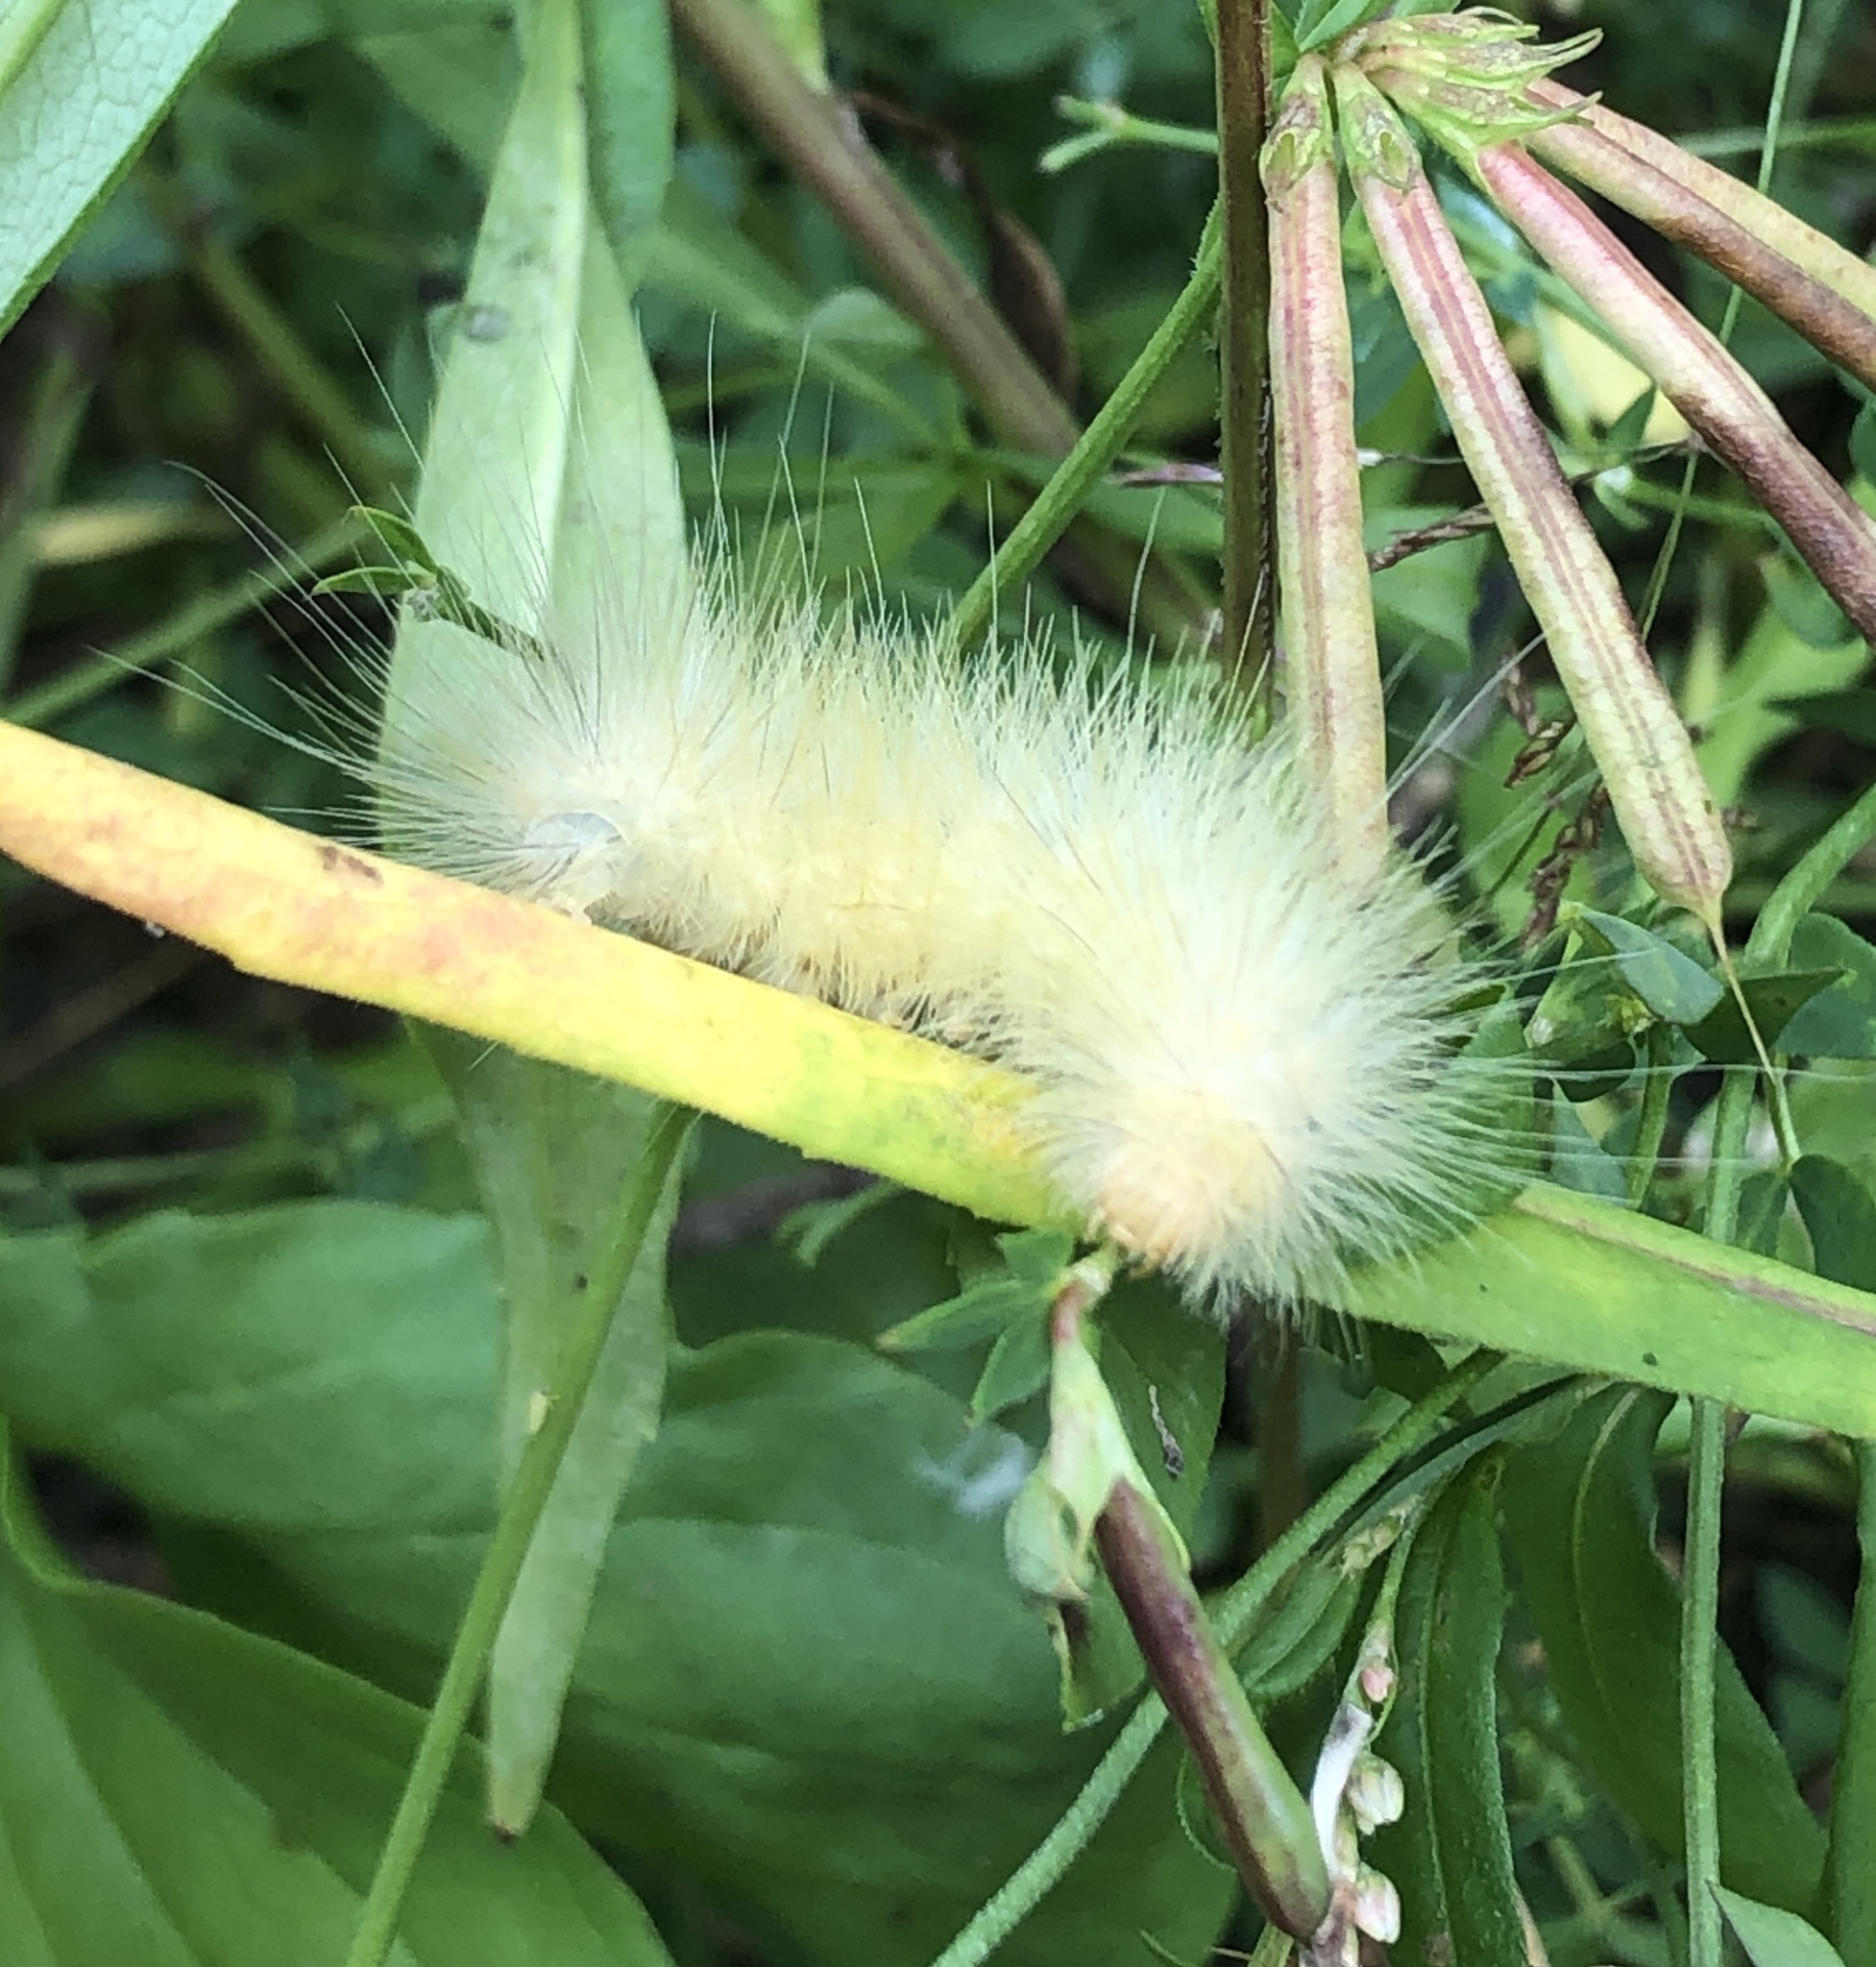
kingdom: Animalia
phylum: Arthropoda
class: Insecta
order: Lepidoptera
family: Erebidae
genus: Spilosoma
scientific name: Spilosoma virginica
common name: Virginia tiger moth
